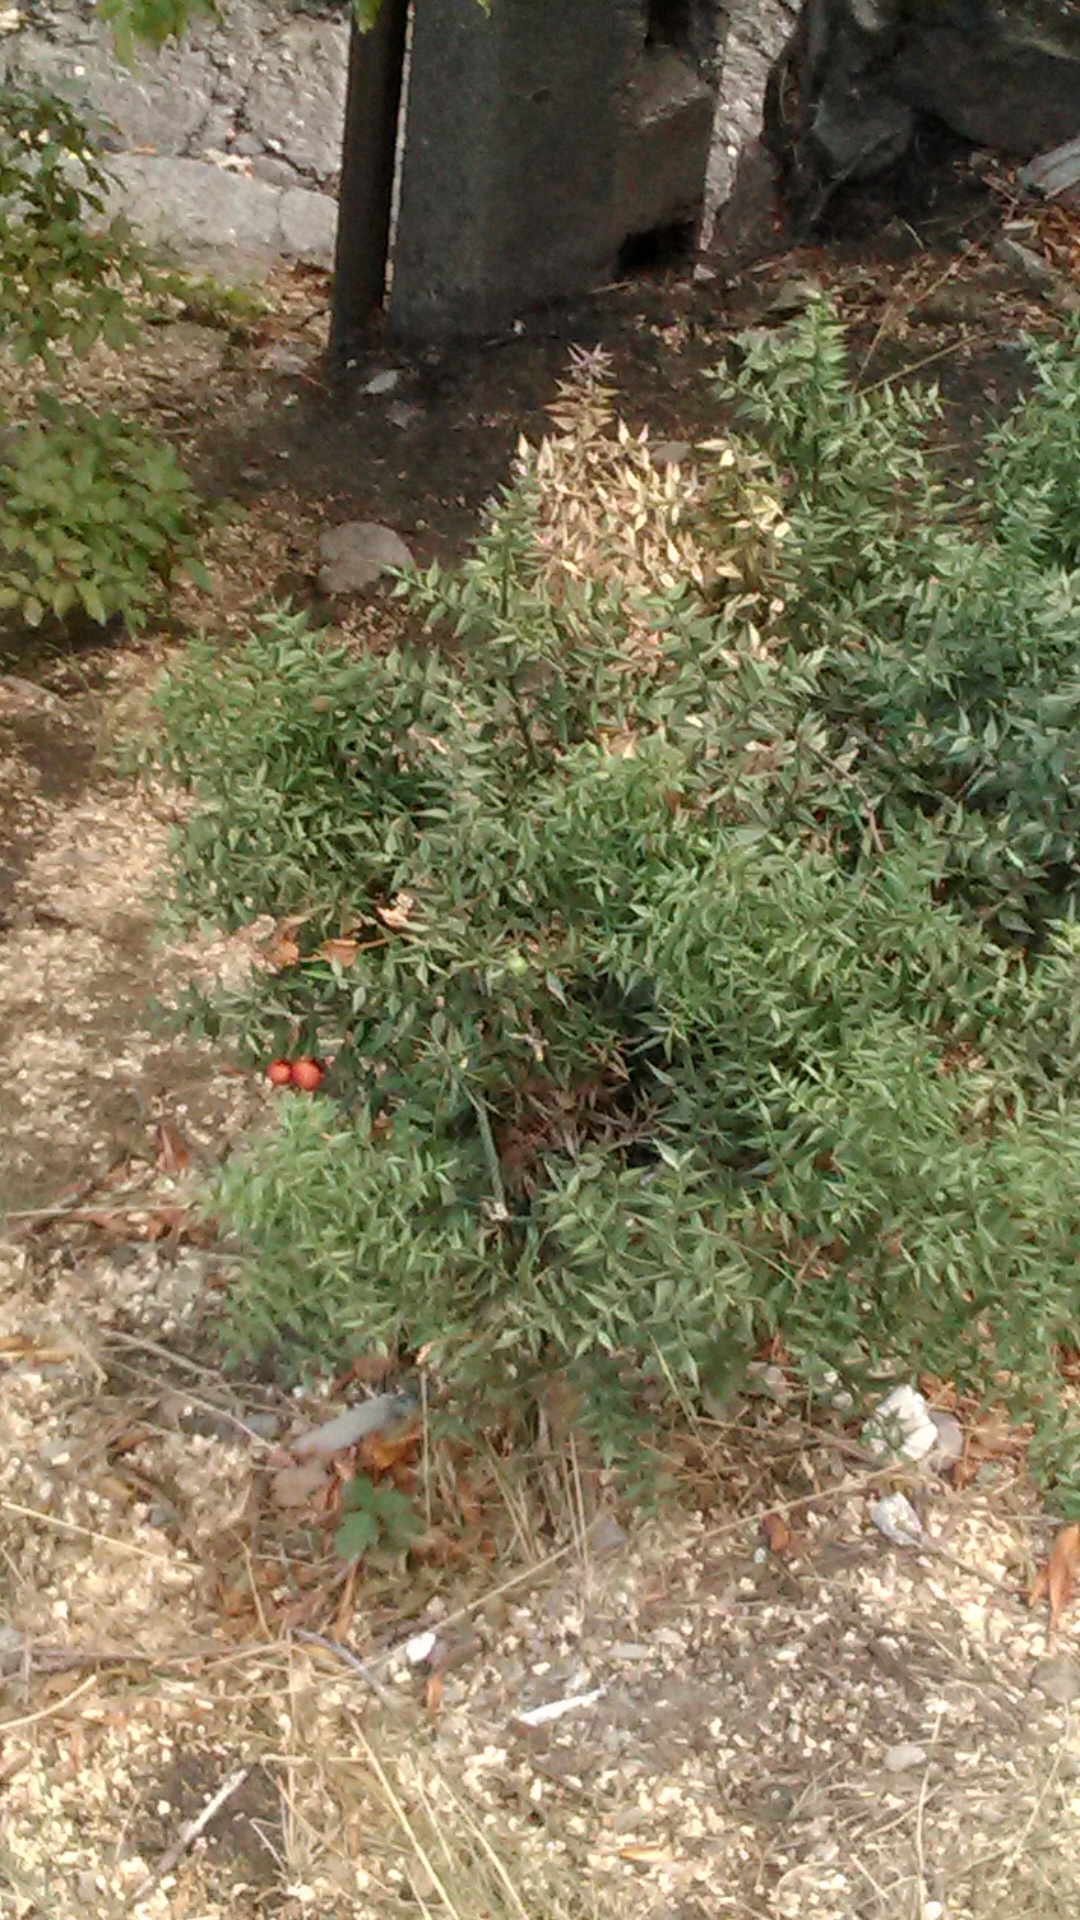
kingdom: Plantae
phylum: Tracheophyta
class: Liliopsida
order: Asparagales
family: Asparagaceae
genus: Ruscus
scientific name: Ruscus aculeatus
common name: Butcher's-broom
